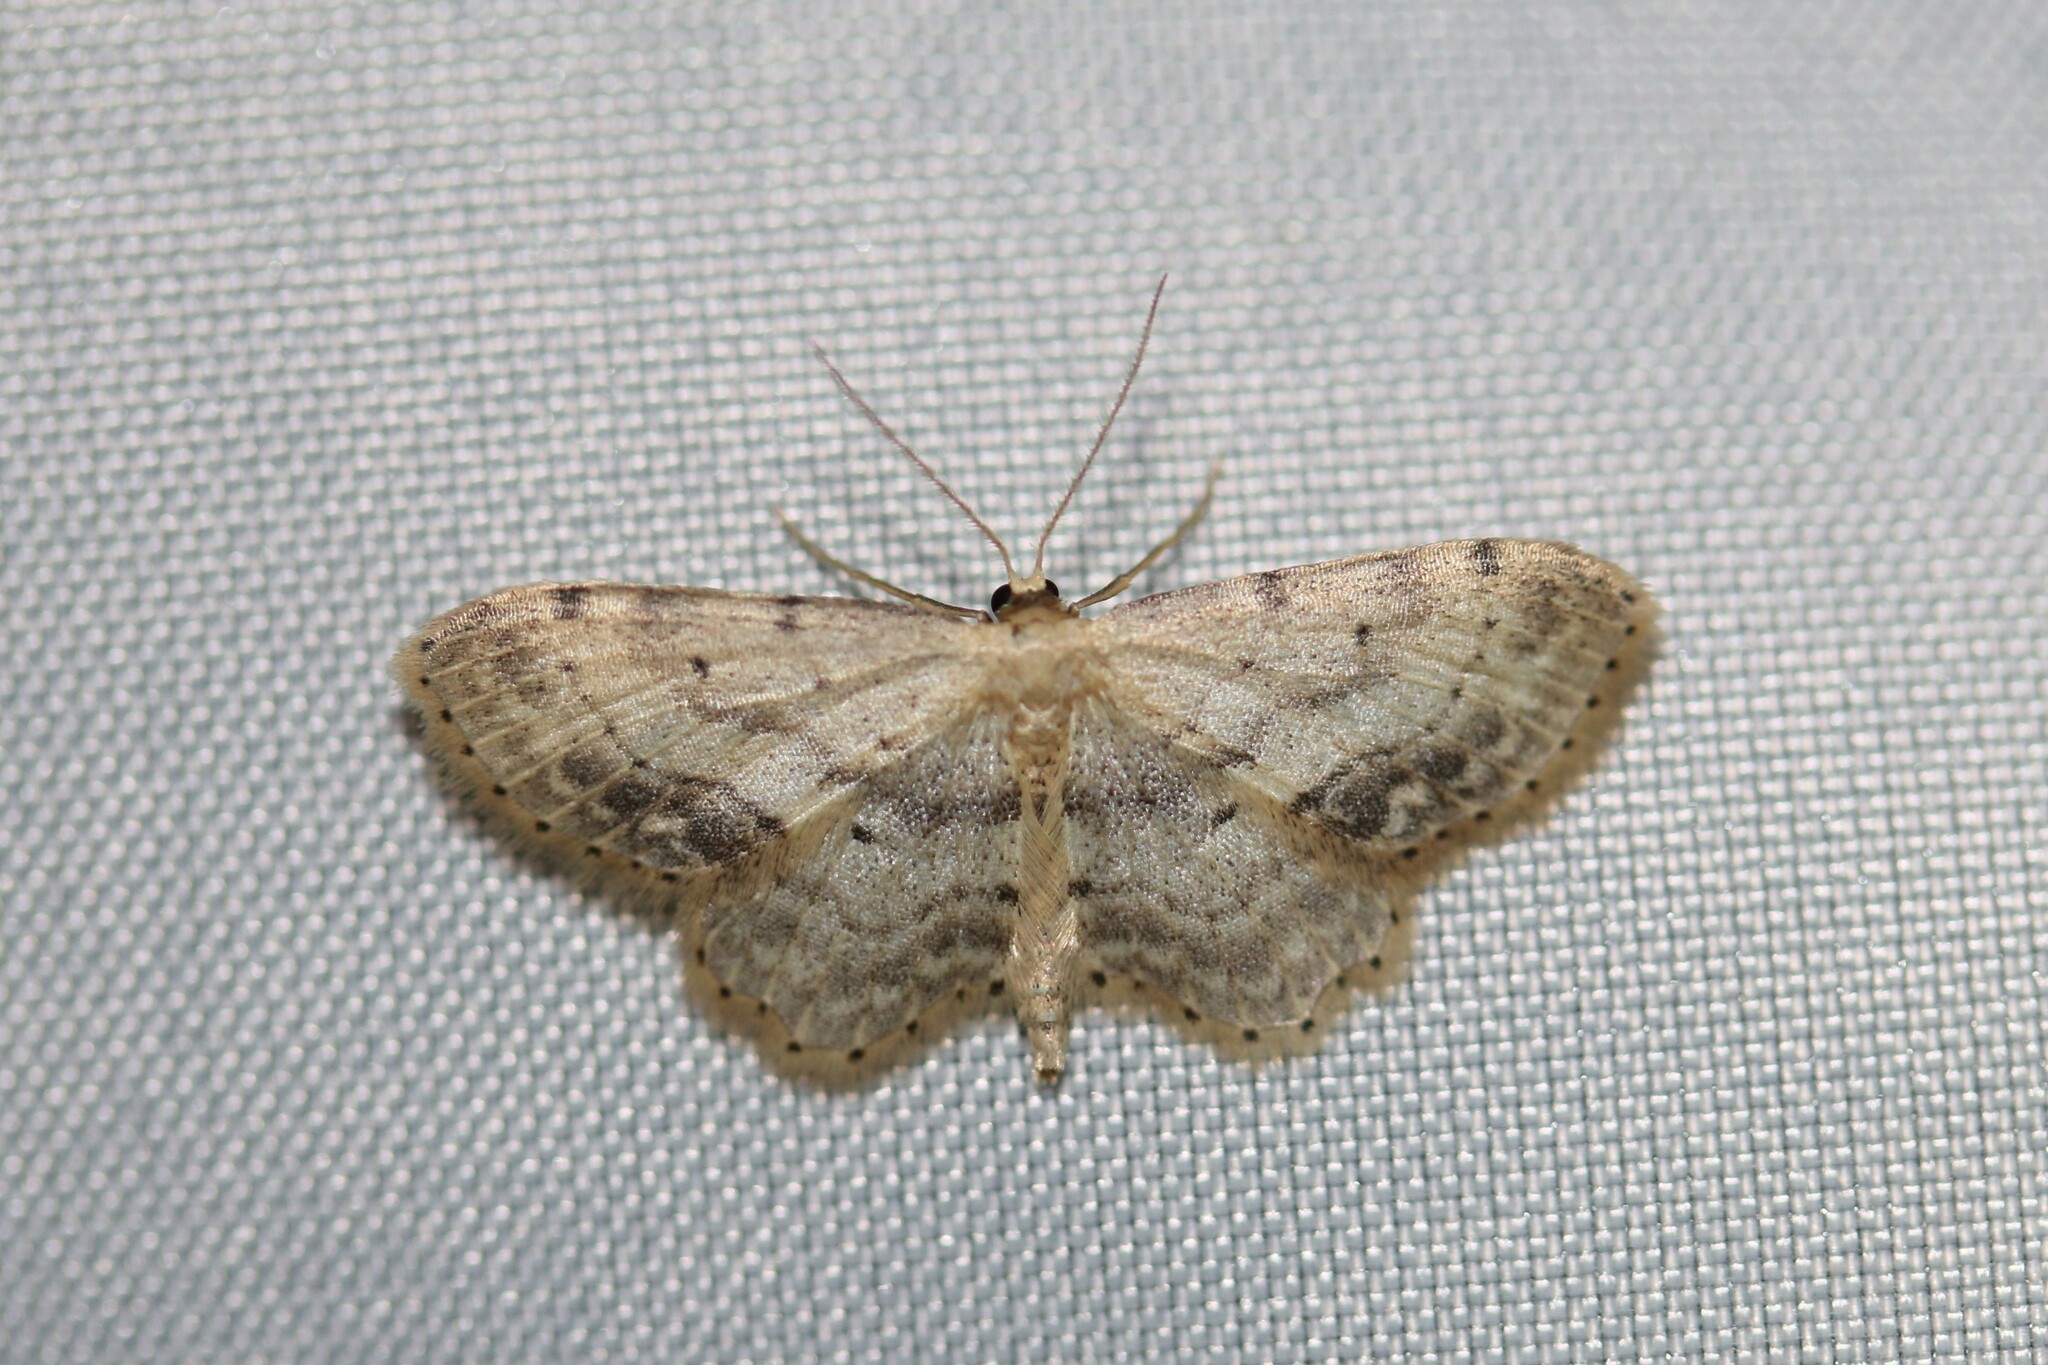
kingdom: Animalia
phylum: Arthropoda
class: Insecta
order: Lepidoptera
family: Geometridae
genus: Idaea
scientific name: Idaea dimidiata
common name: Single-dotted wave
